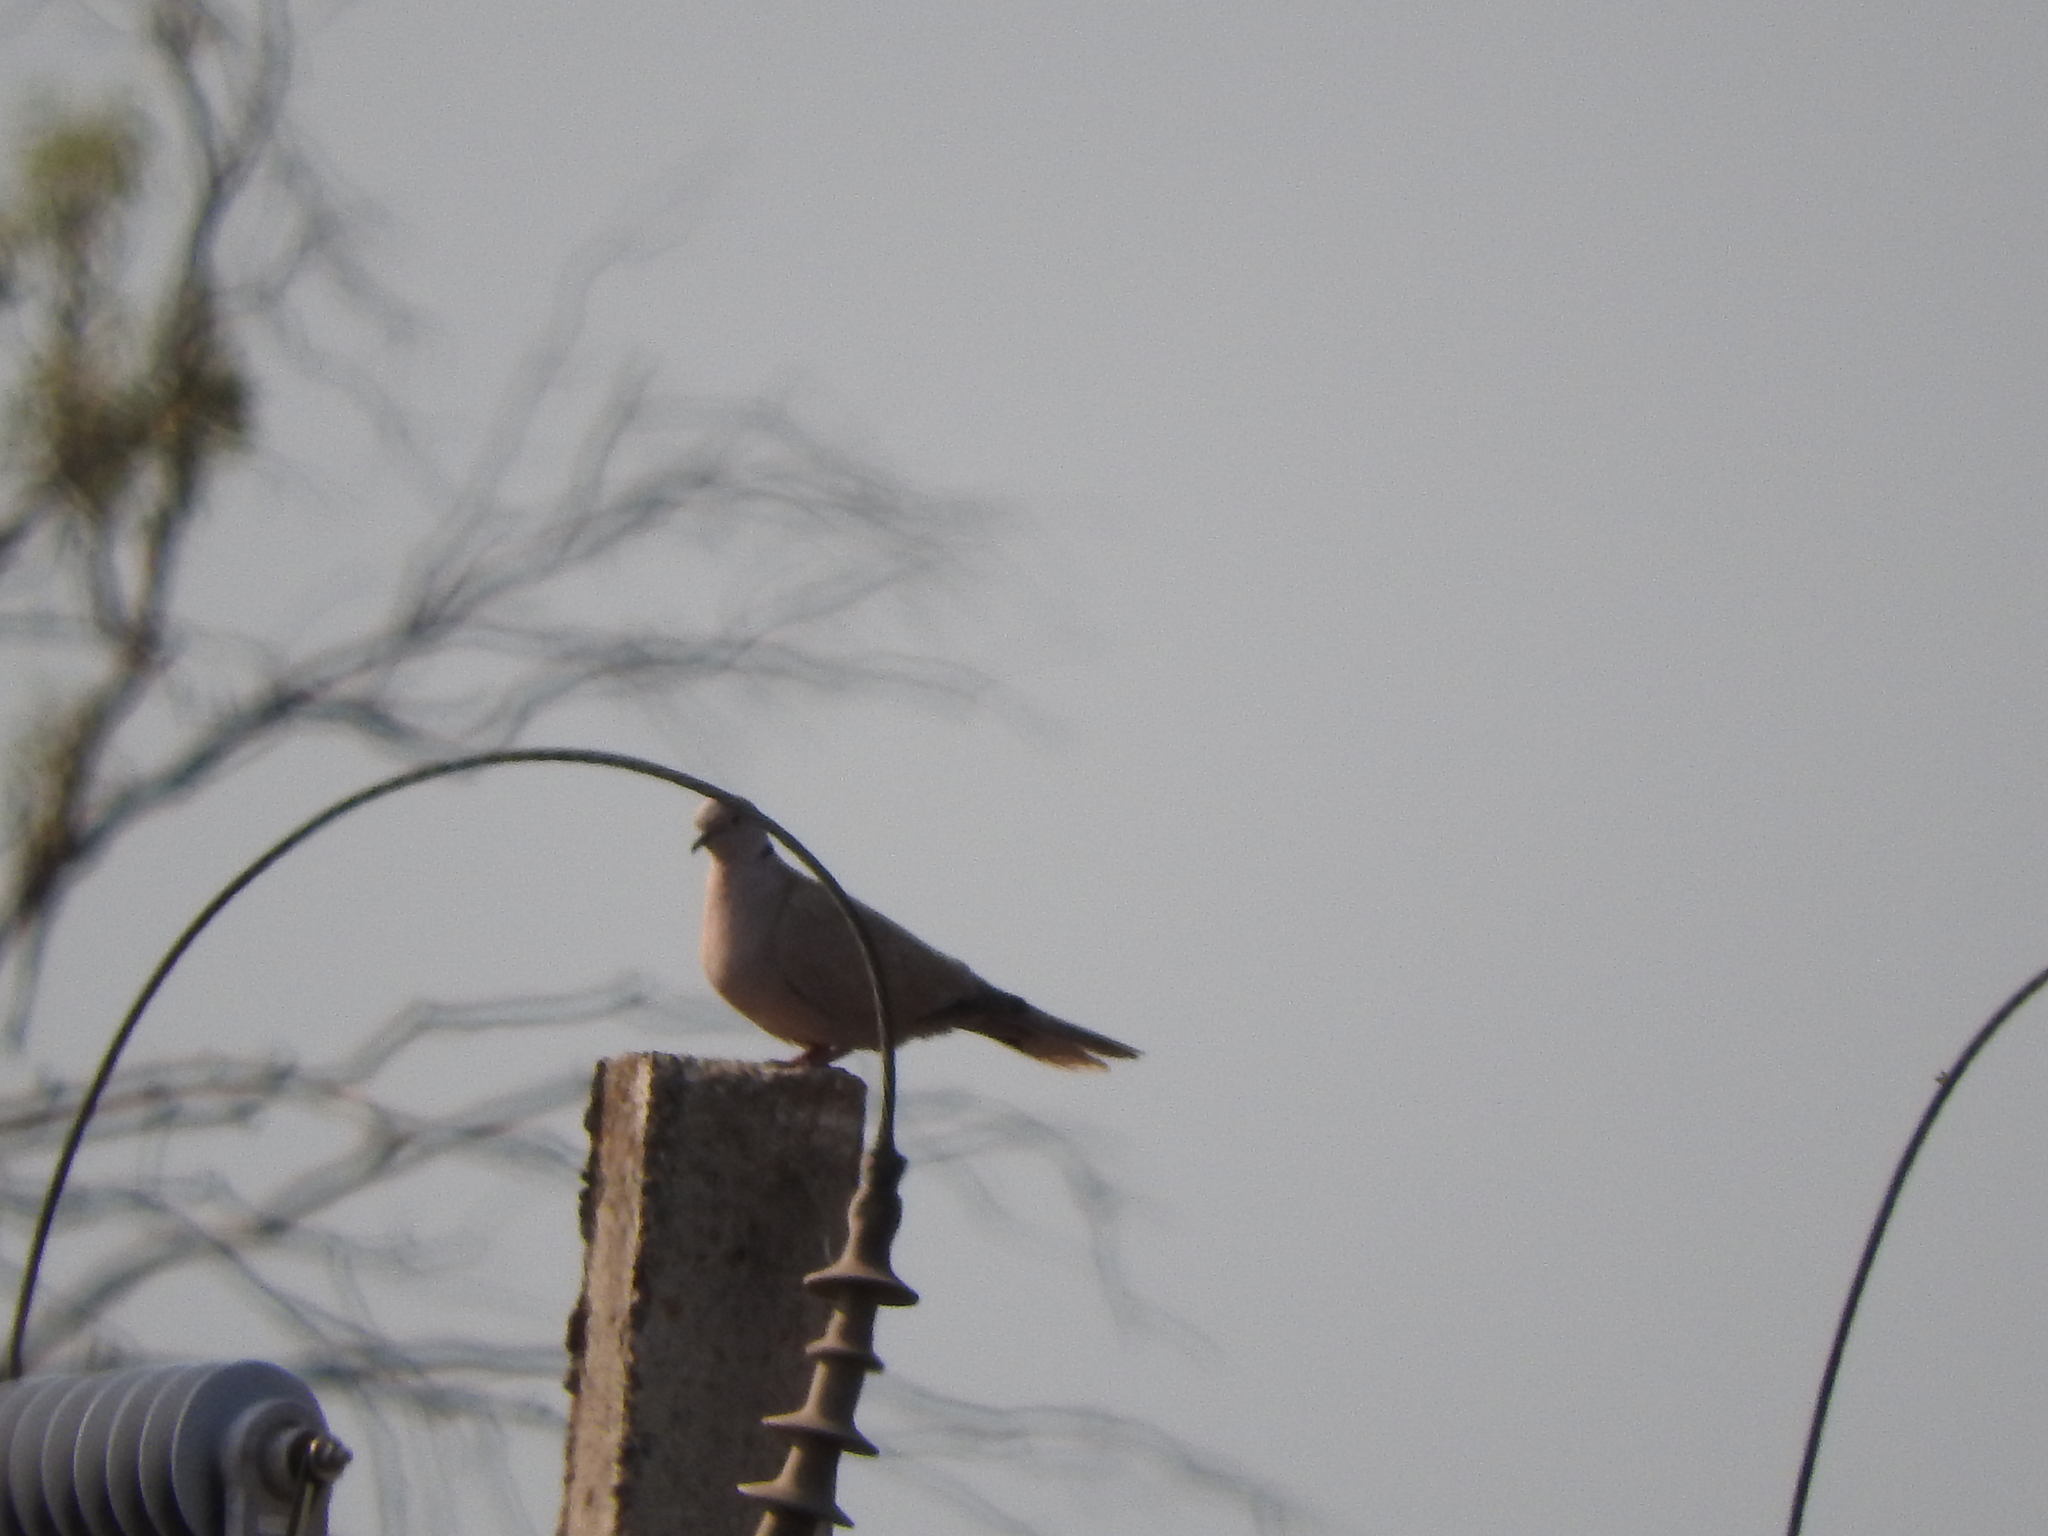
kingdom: Animalia
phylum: Chordata
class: Aves
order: Columbiformes
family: Columbidae
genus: Streptopelia
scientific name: Streptopelia decaocto
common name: Eurasian collared dove
